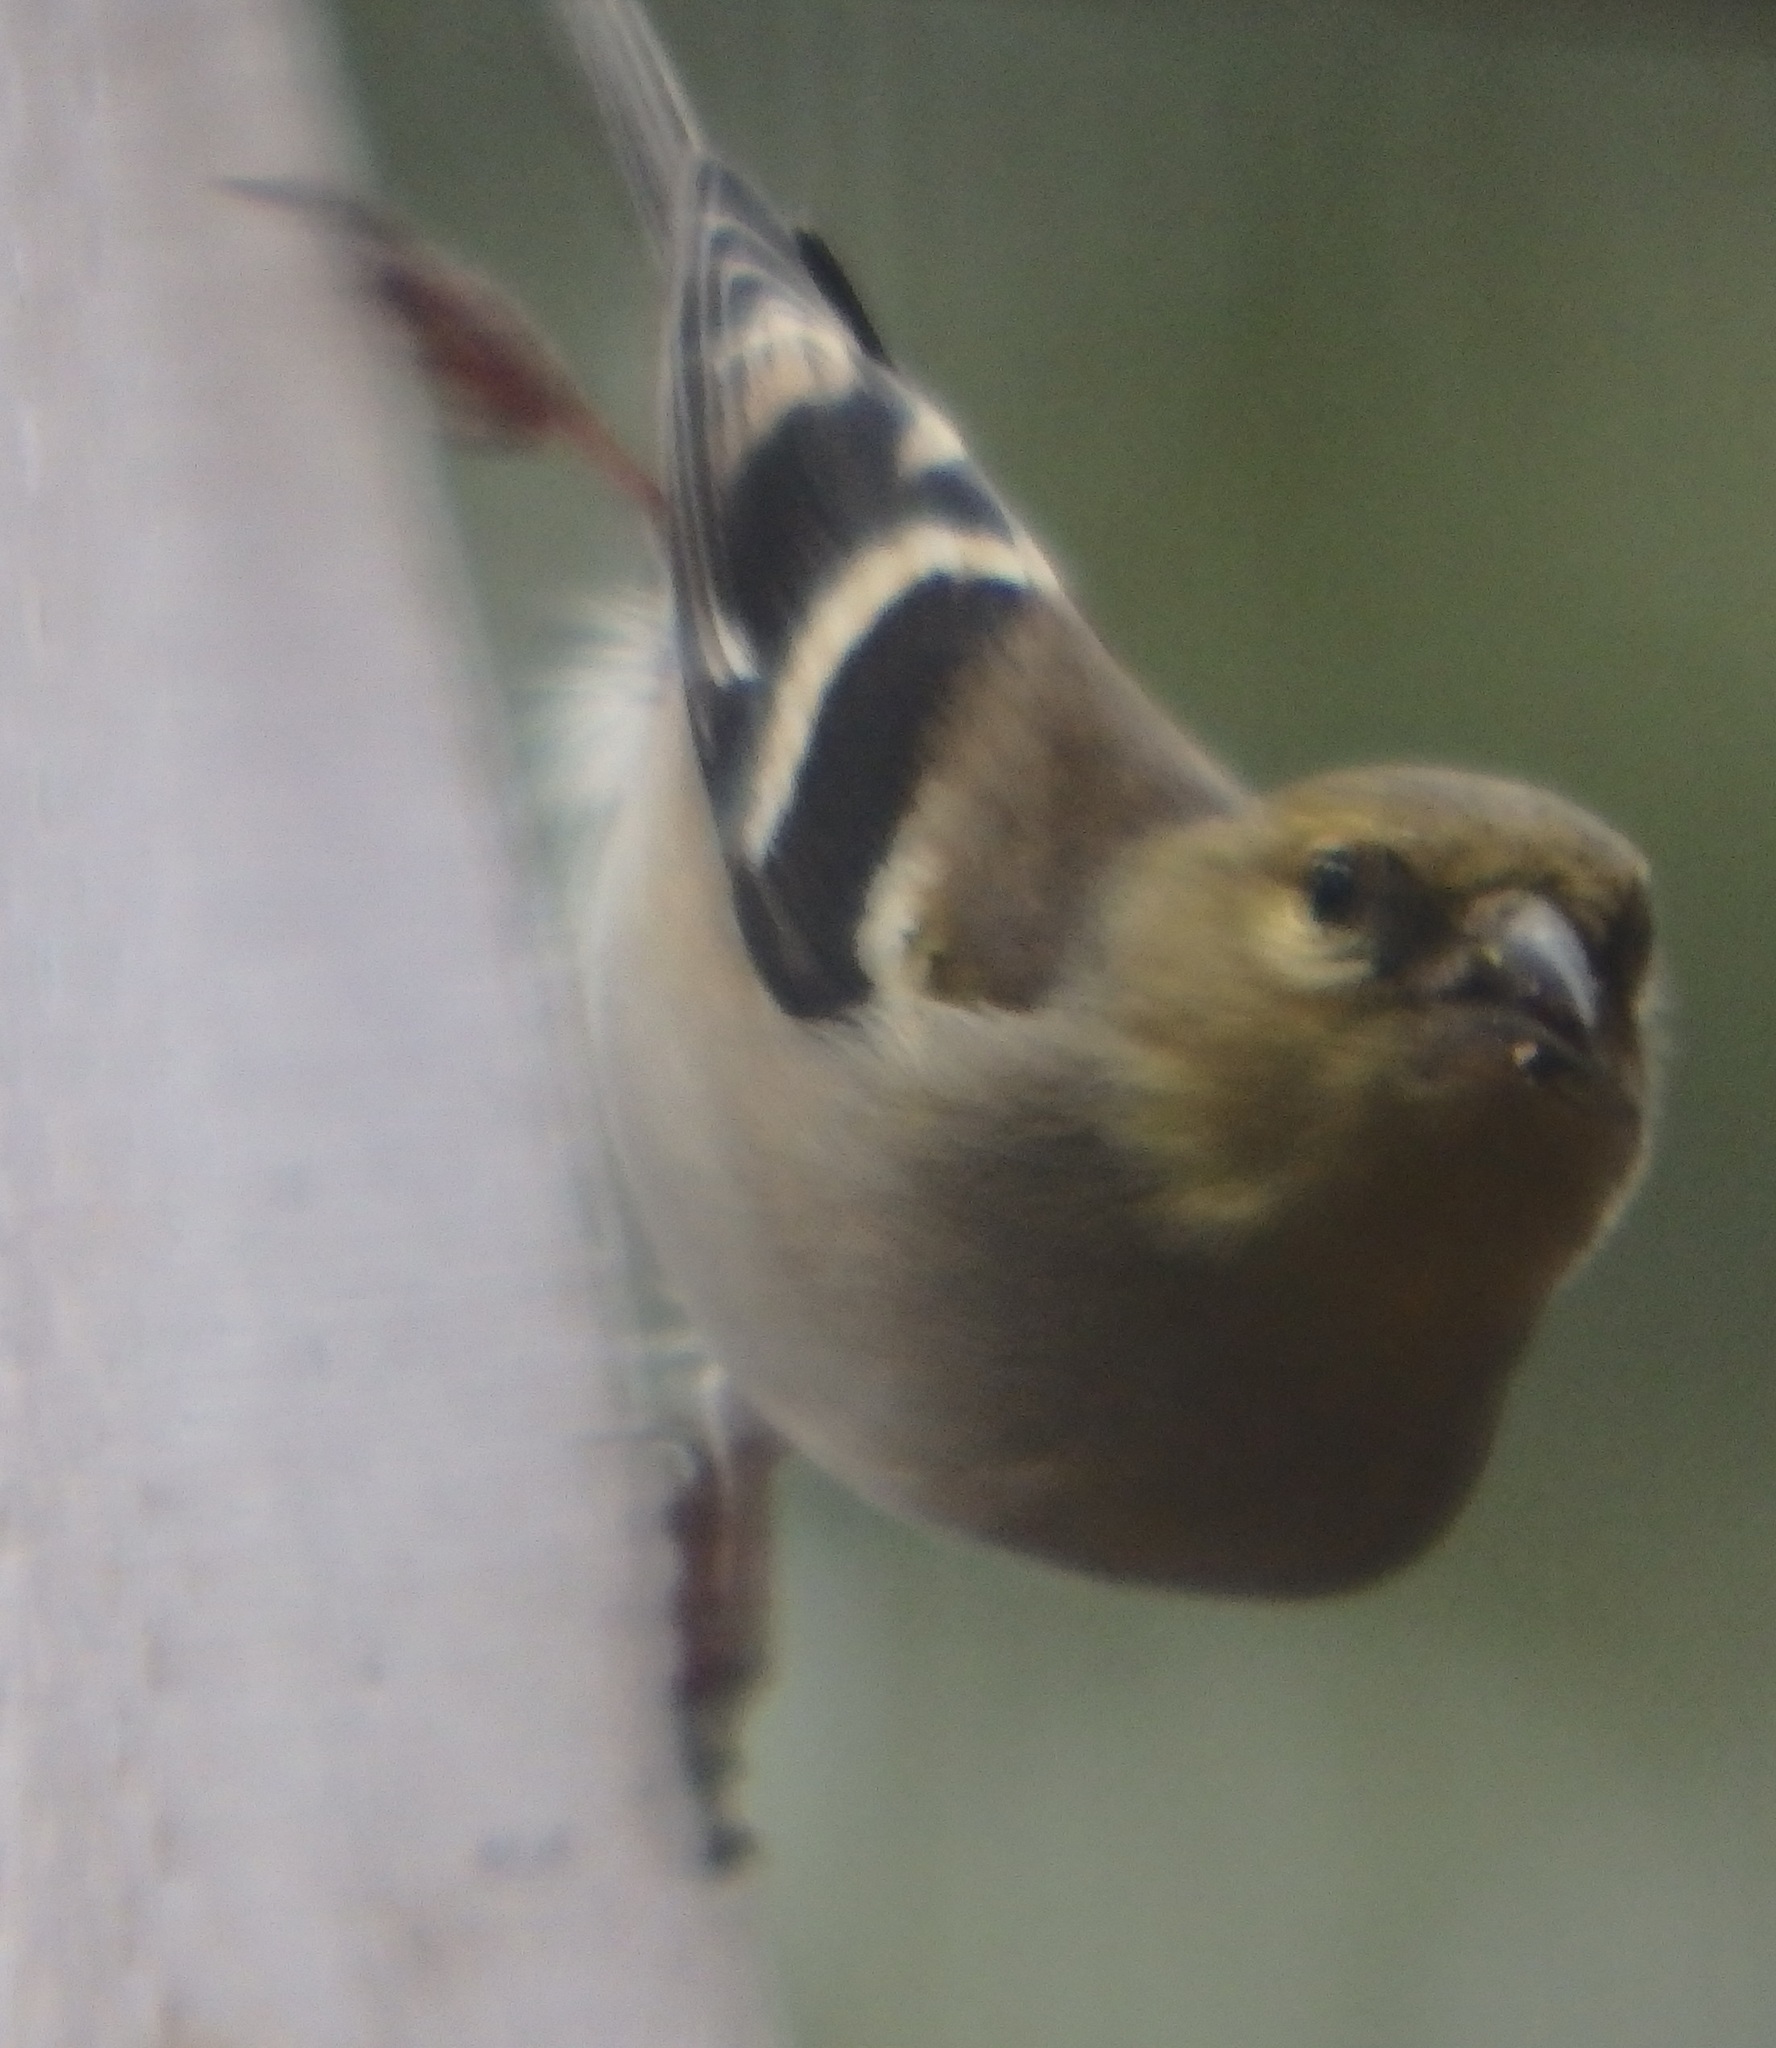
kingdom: Animalia
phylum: Chordata
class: Aves
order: Passeriformes
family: Fringillidae
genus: Spinus
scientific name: Spinus tristis
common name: American goldfinch
